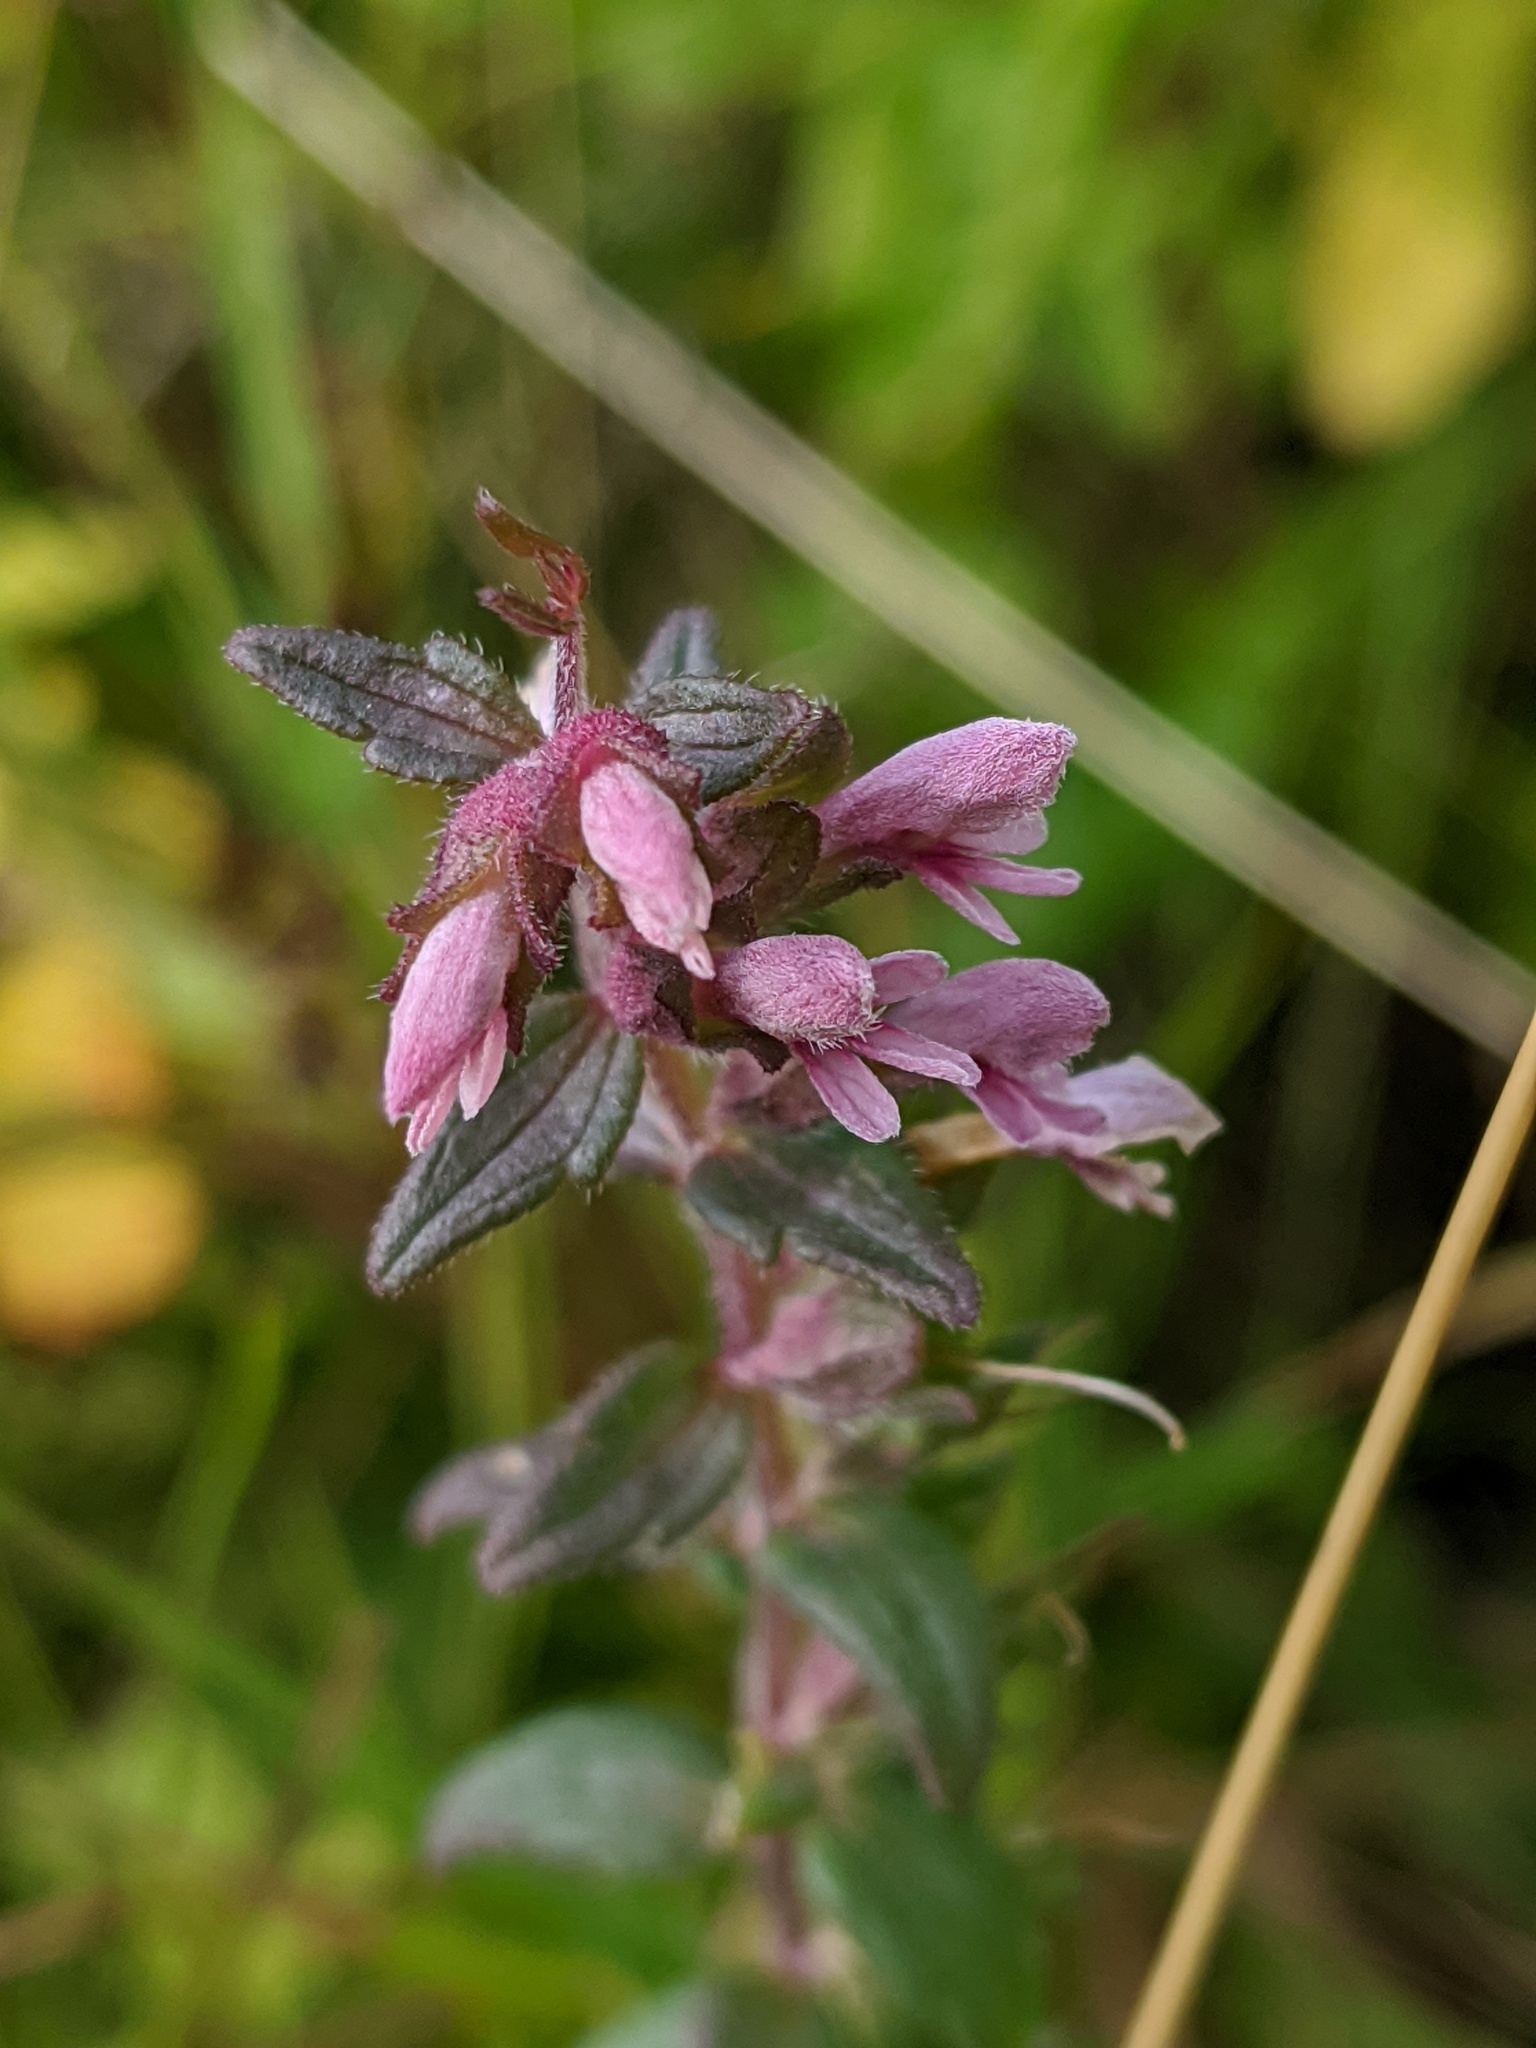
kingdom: Plantae
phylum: Tracheophyta
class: Magnoliopsida
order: Lamiales
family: Orobanchaceae
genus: Odontites
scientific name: Odontites vulgaris
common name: Broomrape
